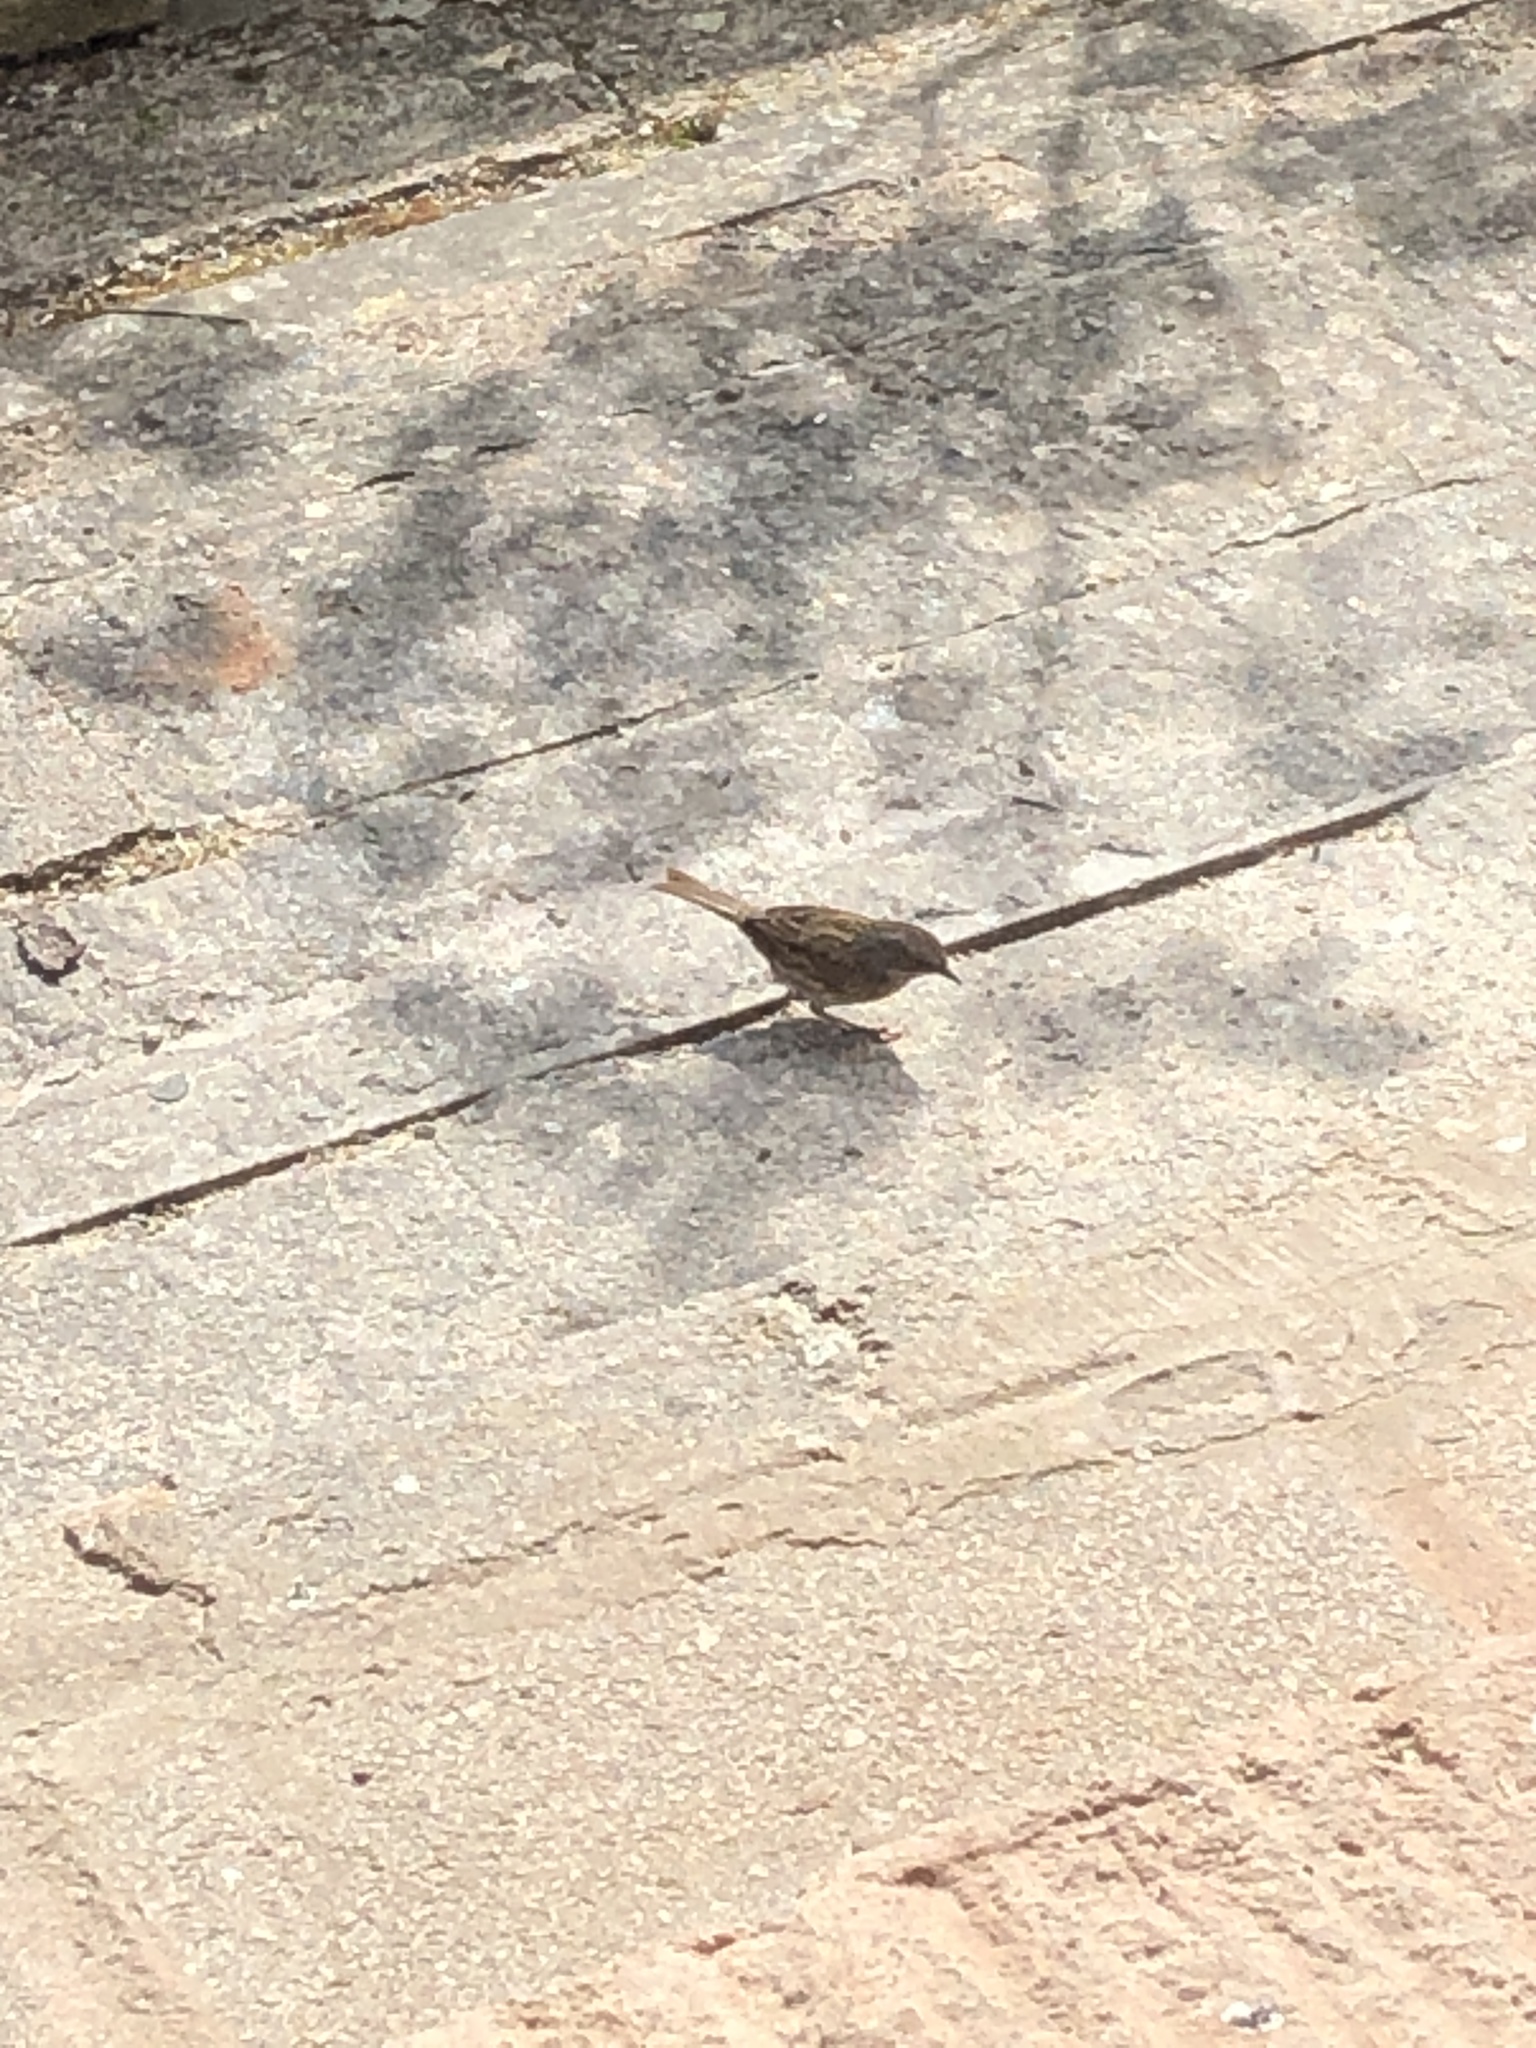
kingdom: Animalia
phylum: Chordata
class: Aves
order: Passeriformes
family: Prunellidae
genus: Prunella
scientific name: Prunella modularis
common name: Dunnock
